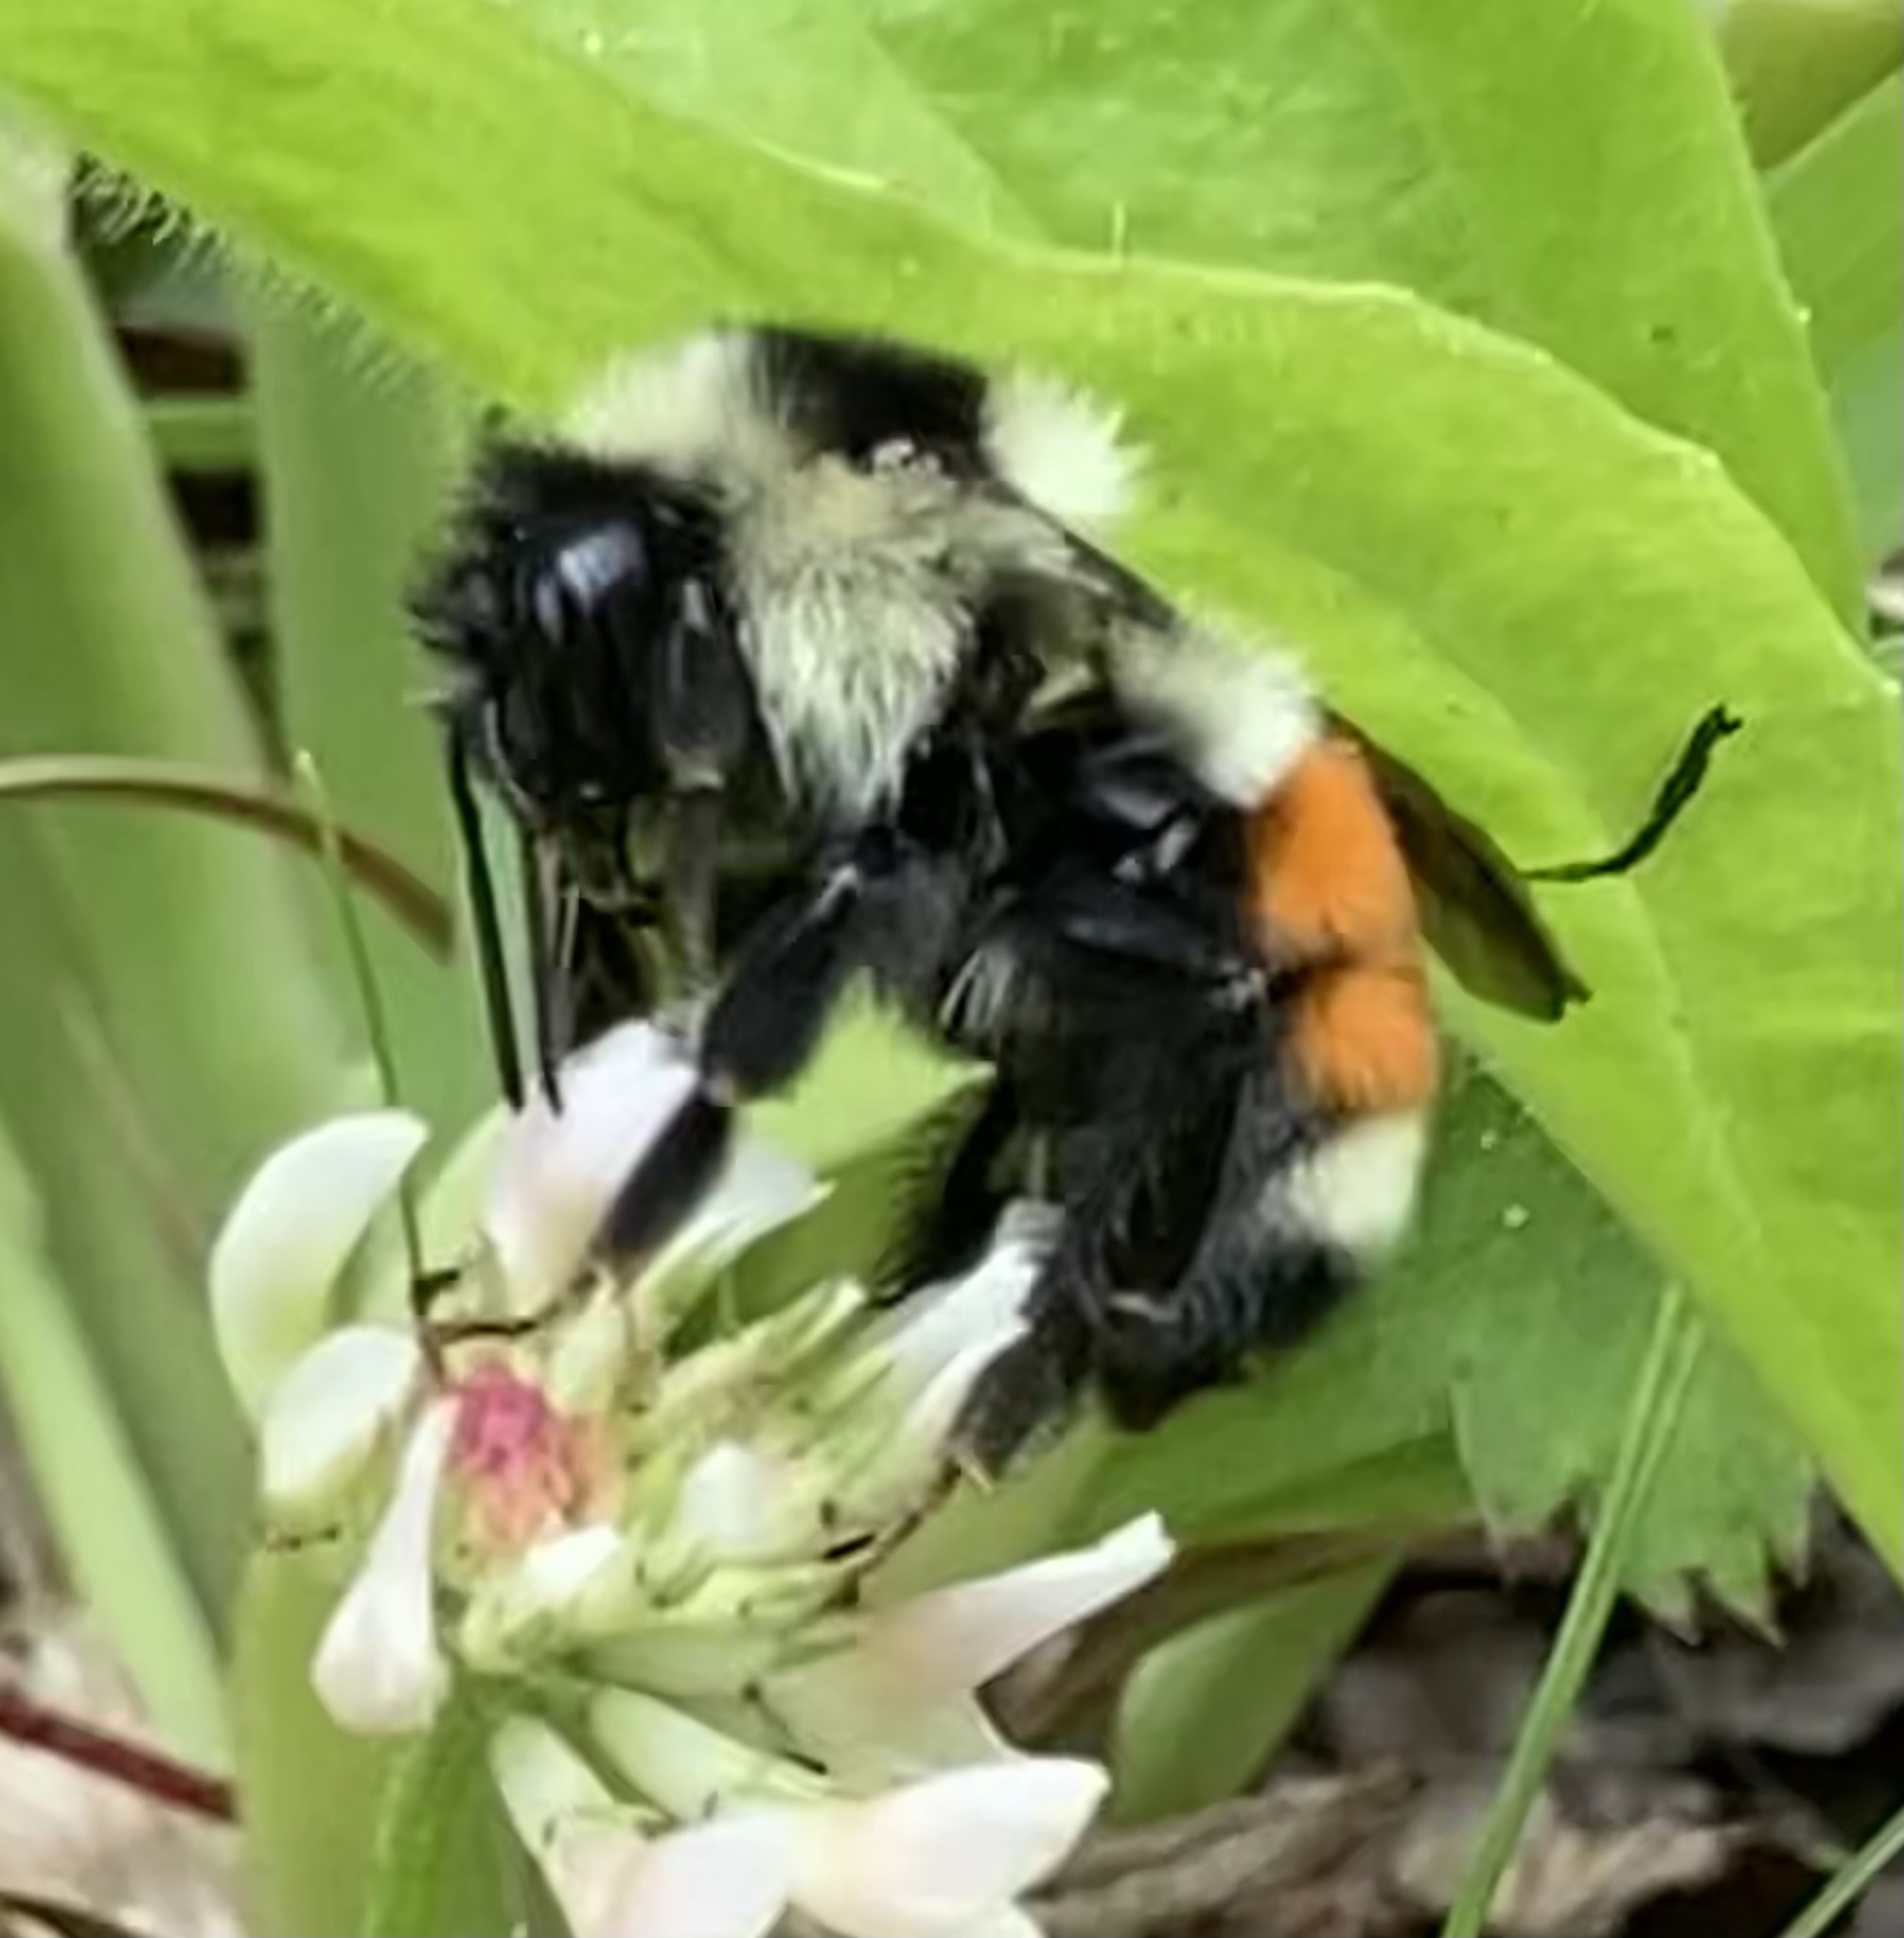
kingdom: Animalia
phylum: Arthropoda
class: Insecta
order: Hymenoptera
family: Apidae
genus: Bombus
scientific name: Bombus ternarius
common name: Tri-colored bumble bee
